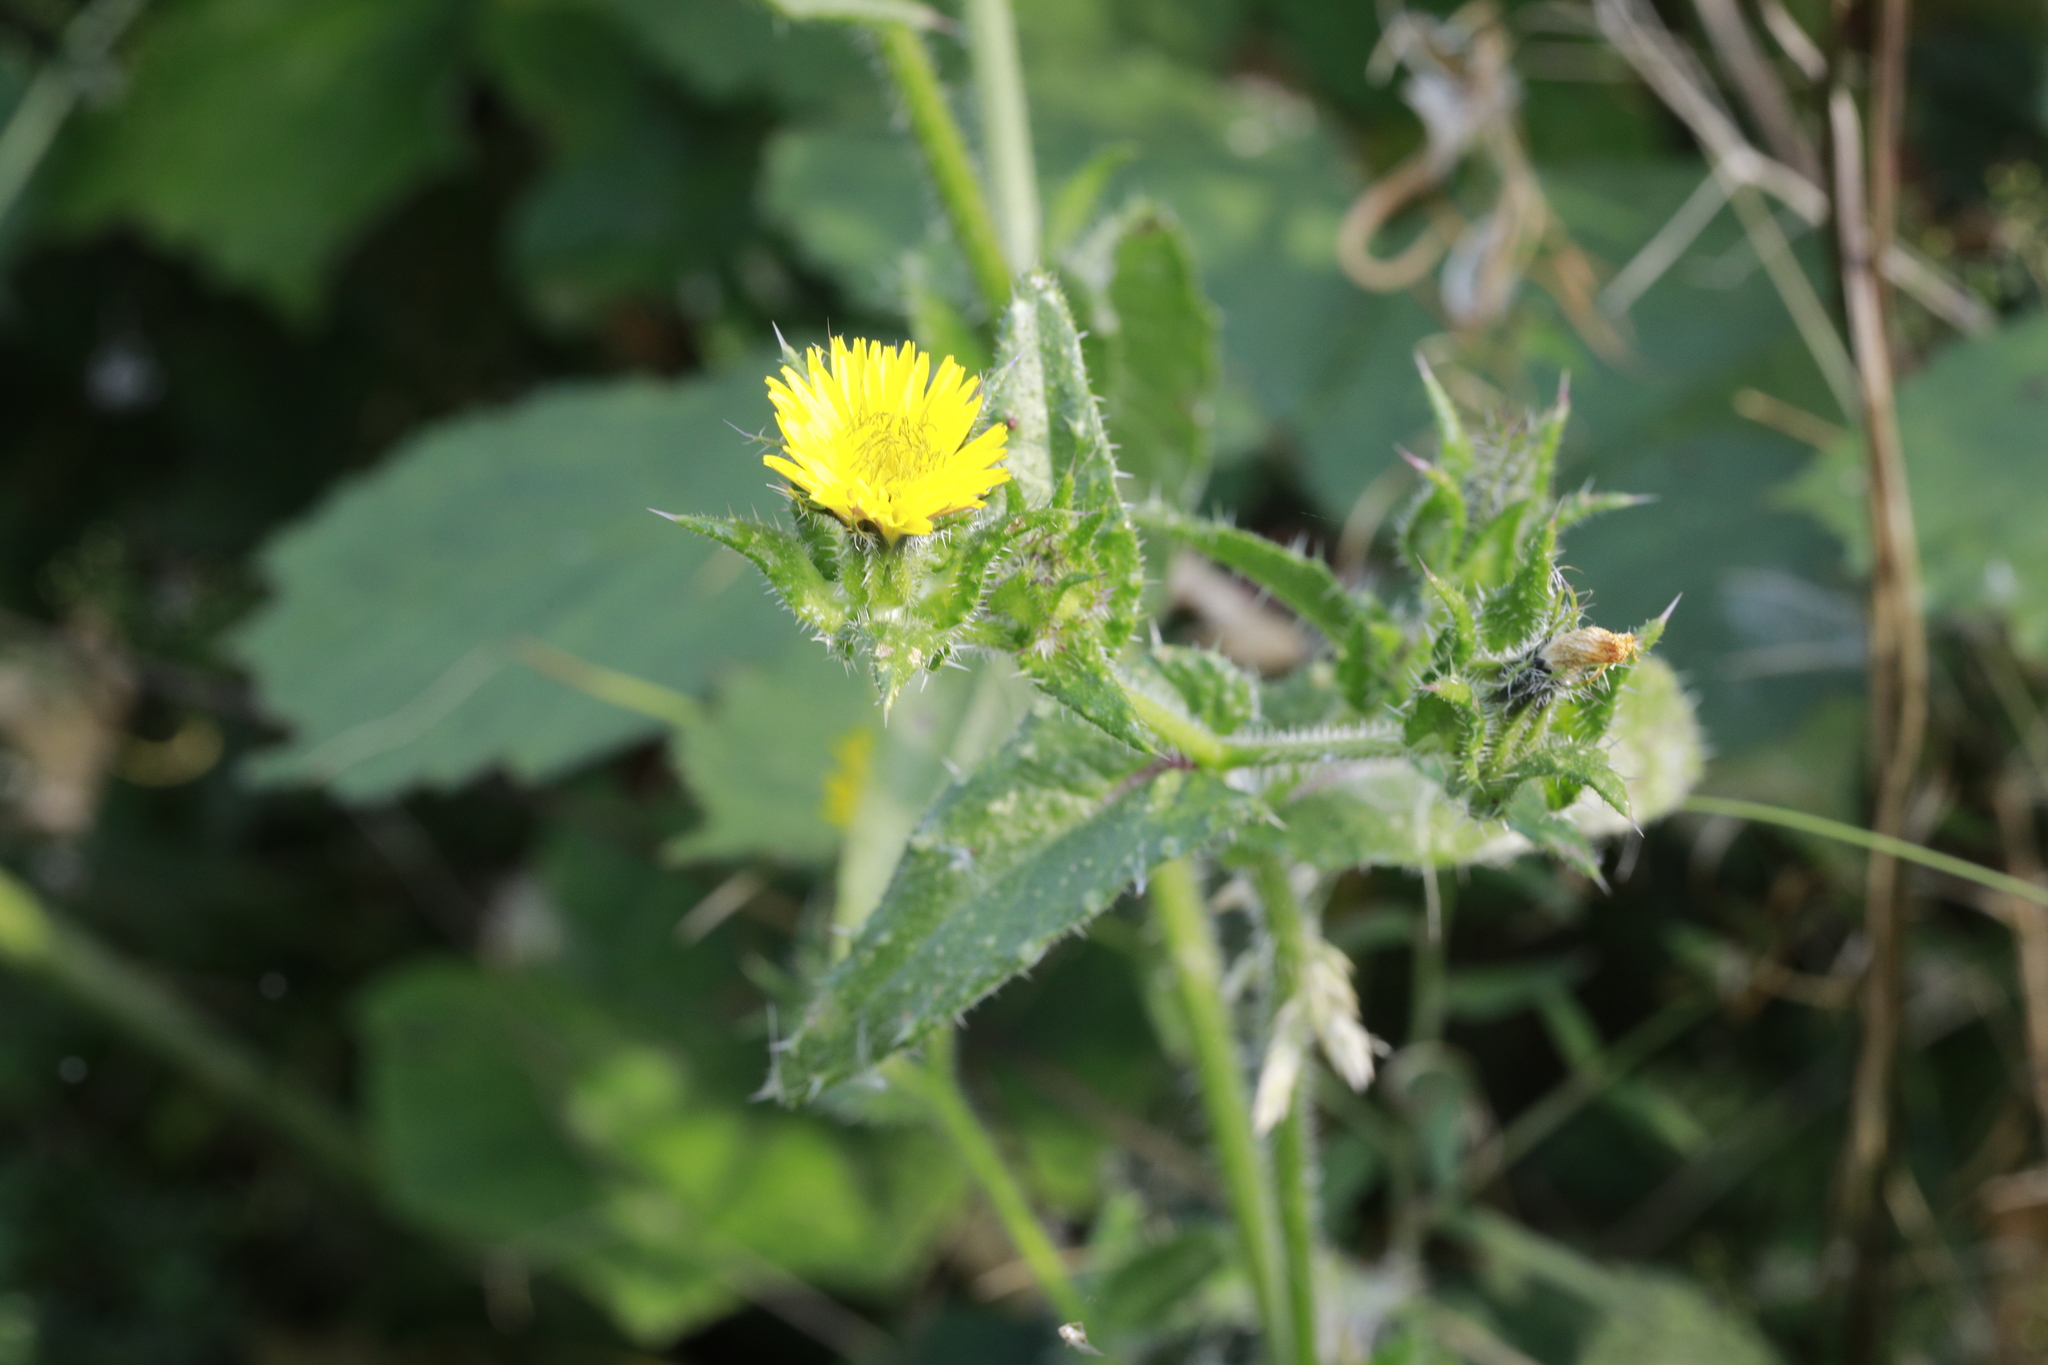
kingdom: Plantae
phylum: Tracheophyta
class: Magnoliopsida
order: Asterales
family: Asteraceae
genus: Helminthotheca
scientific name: Helminthotheca echioides
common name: Ox-tongue
